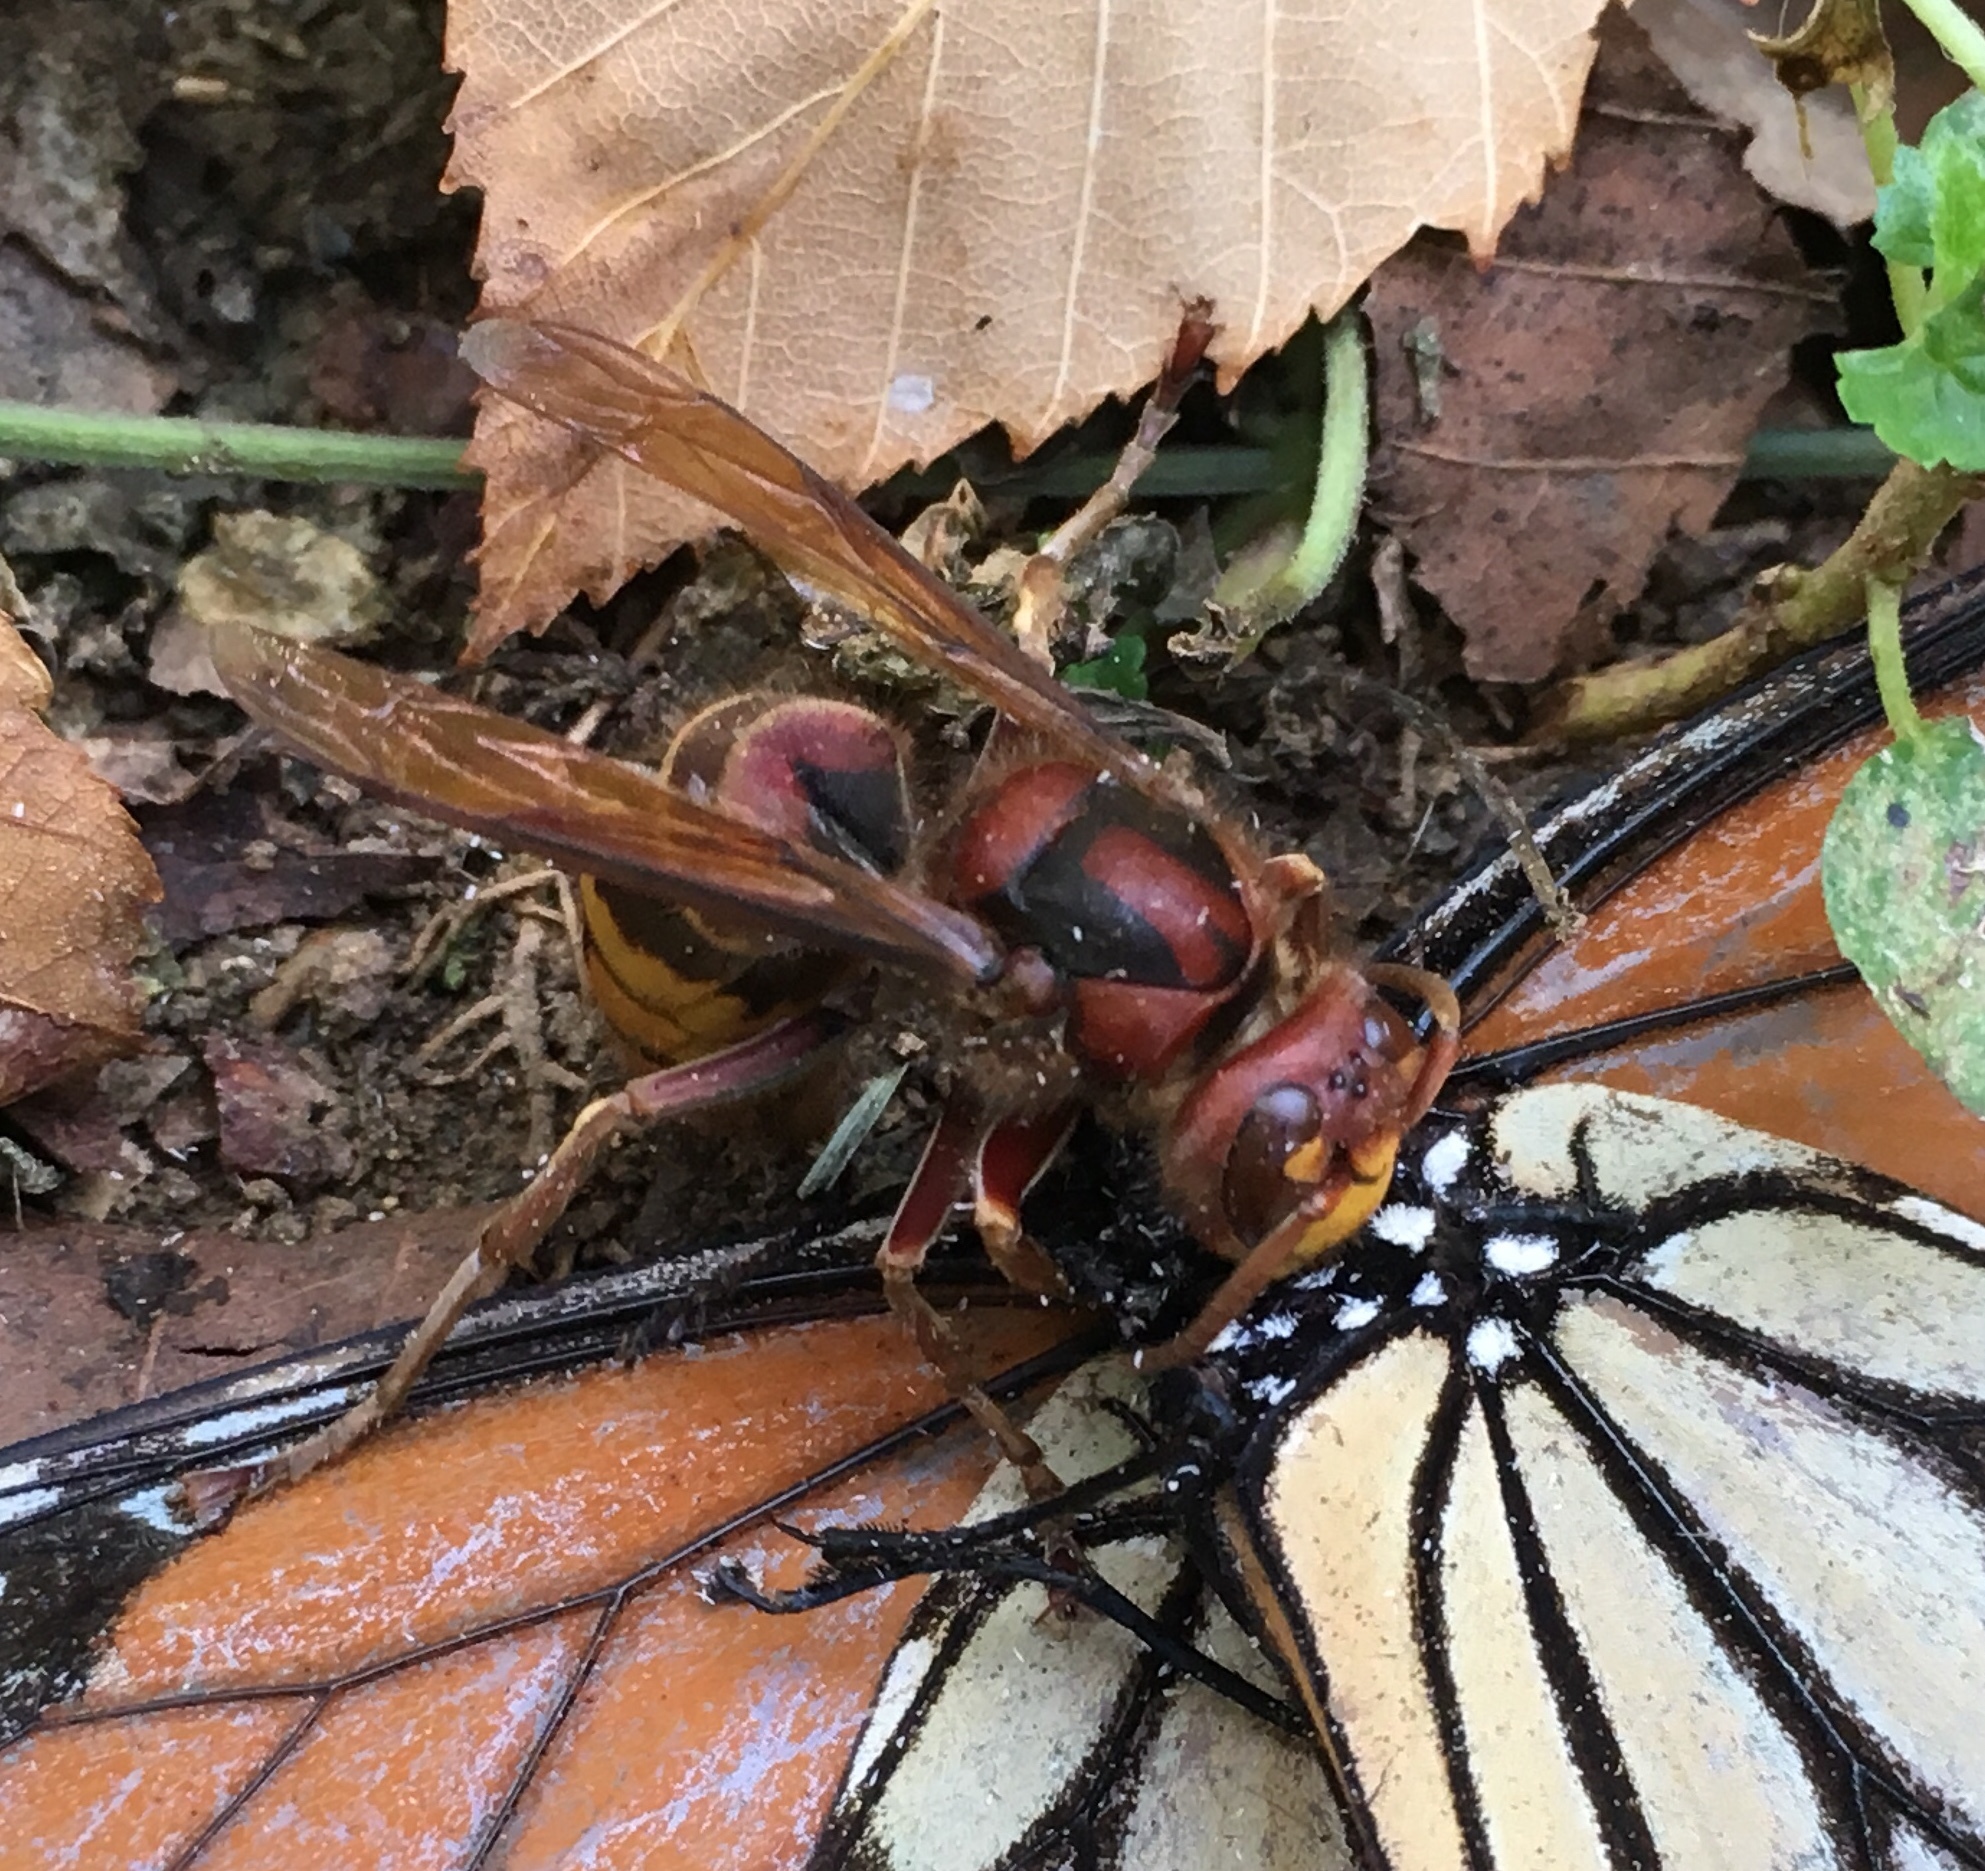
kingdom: Animalia
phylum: Arthropoda
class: Insecta
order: Hymenoptera
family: Vespidae
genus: Vespa
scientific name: Vespa crabro
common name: Hornet
